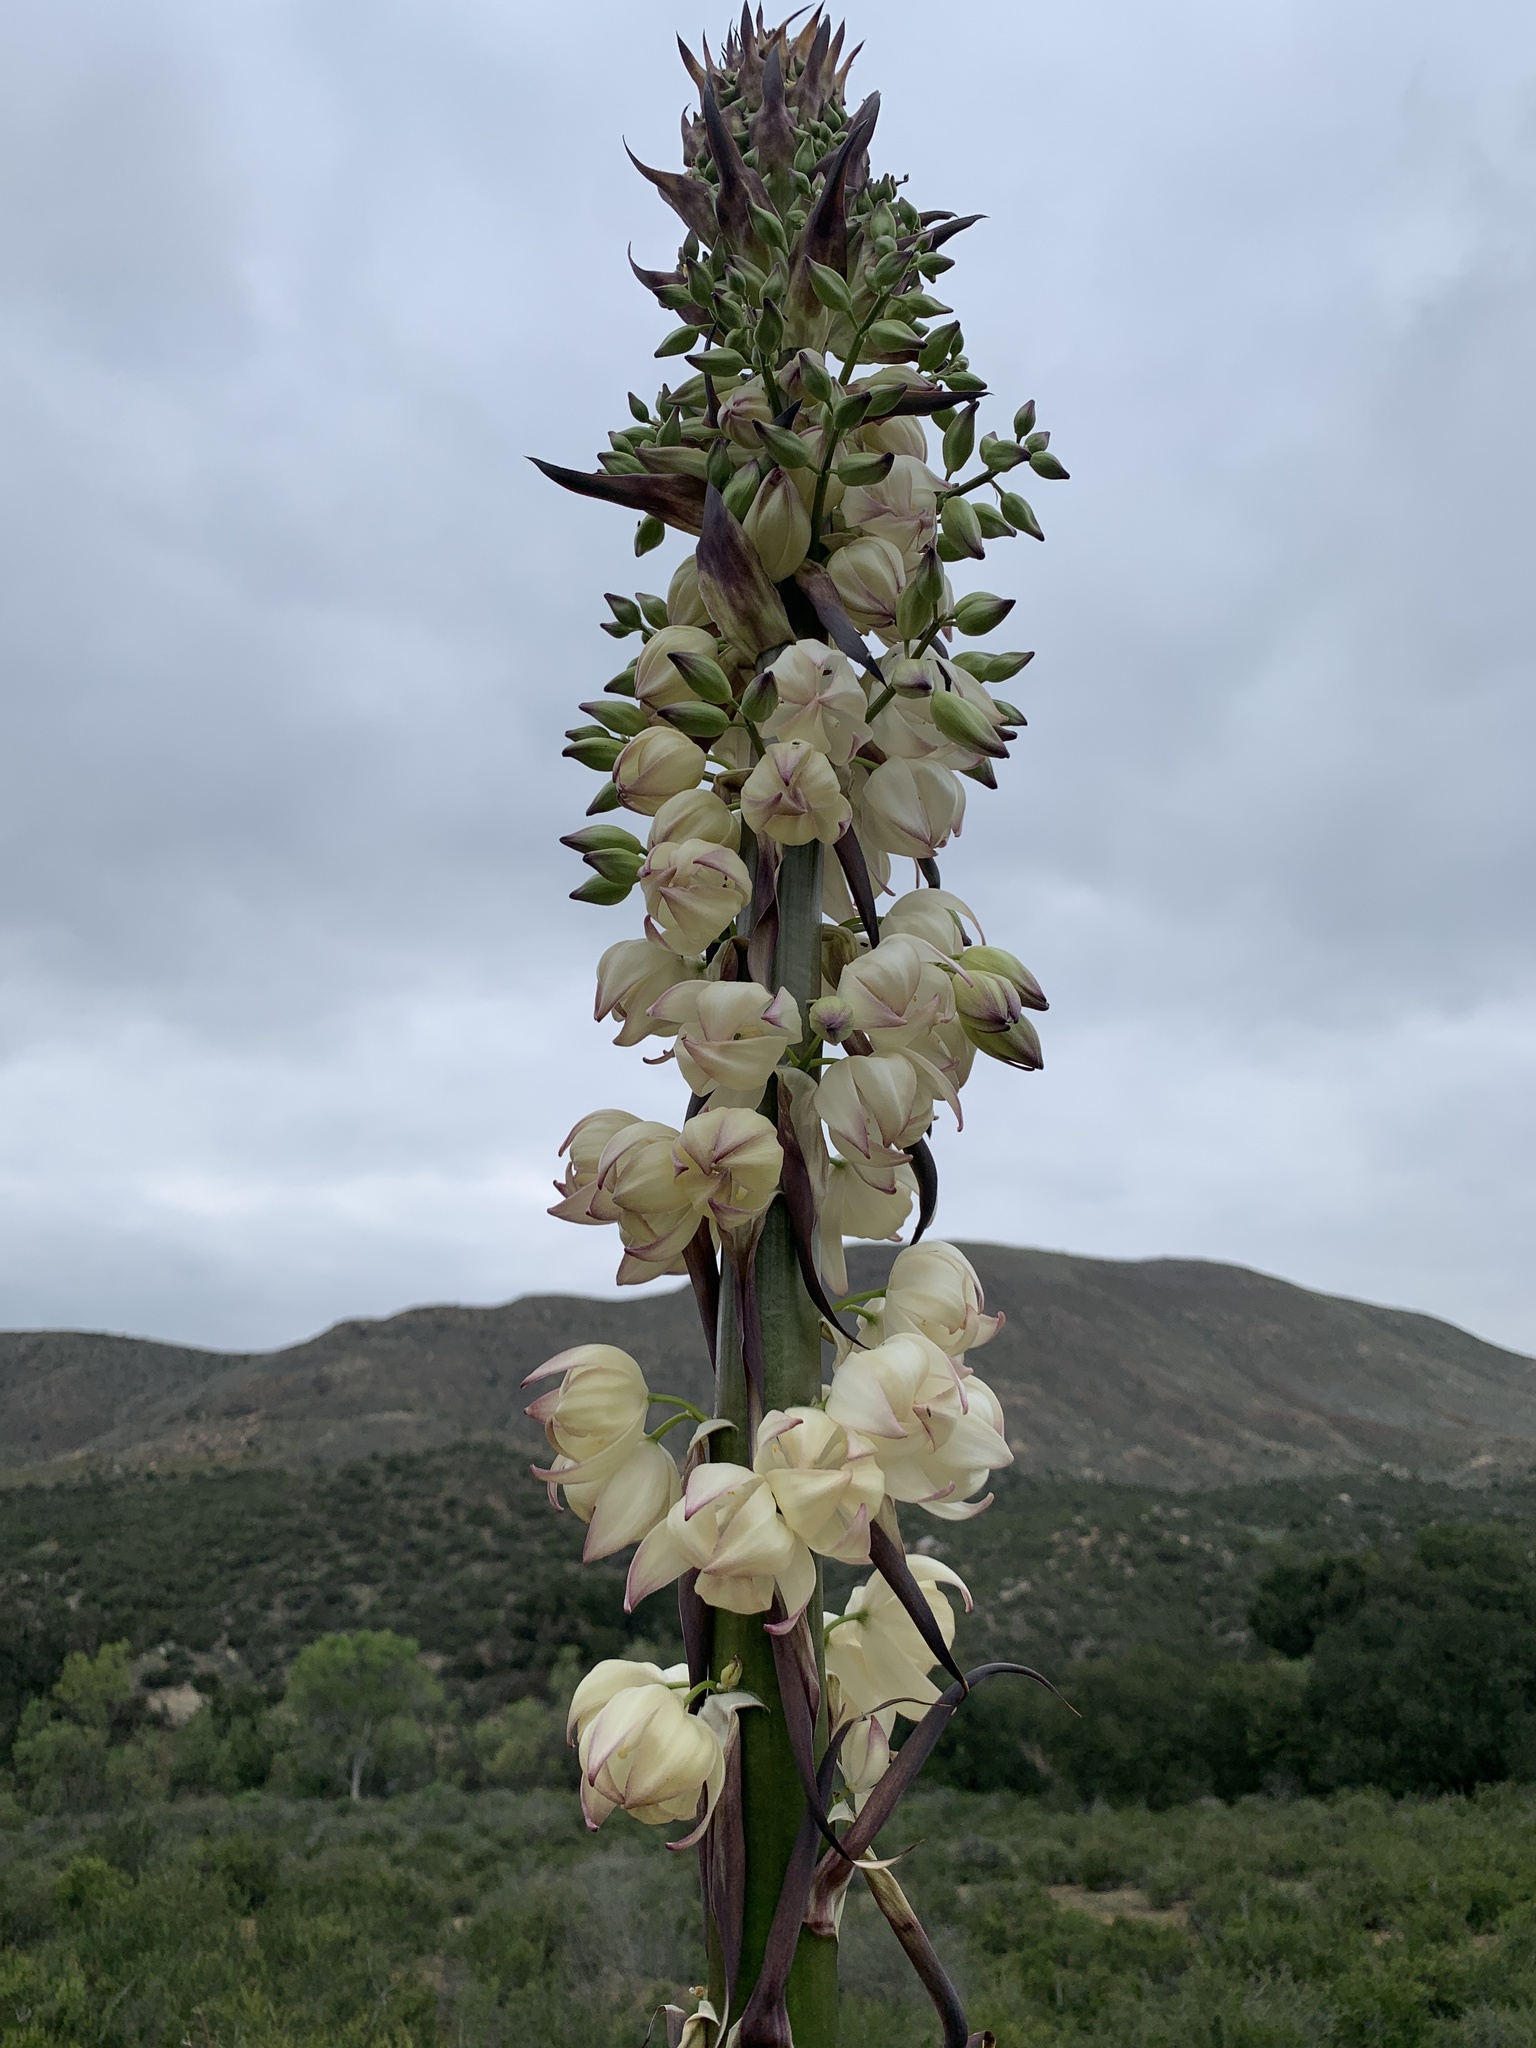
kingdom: Plantae
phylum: Tracheophyta
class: Liliopsida
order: Asparagales
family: Asparagaceae
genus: Hesperoyucca
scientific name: Hesperoyucca whipplei
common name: Our lord's-candle
